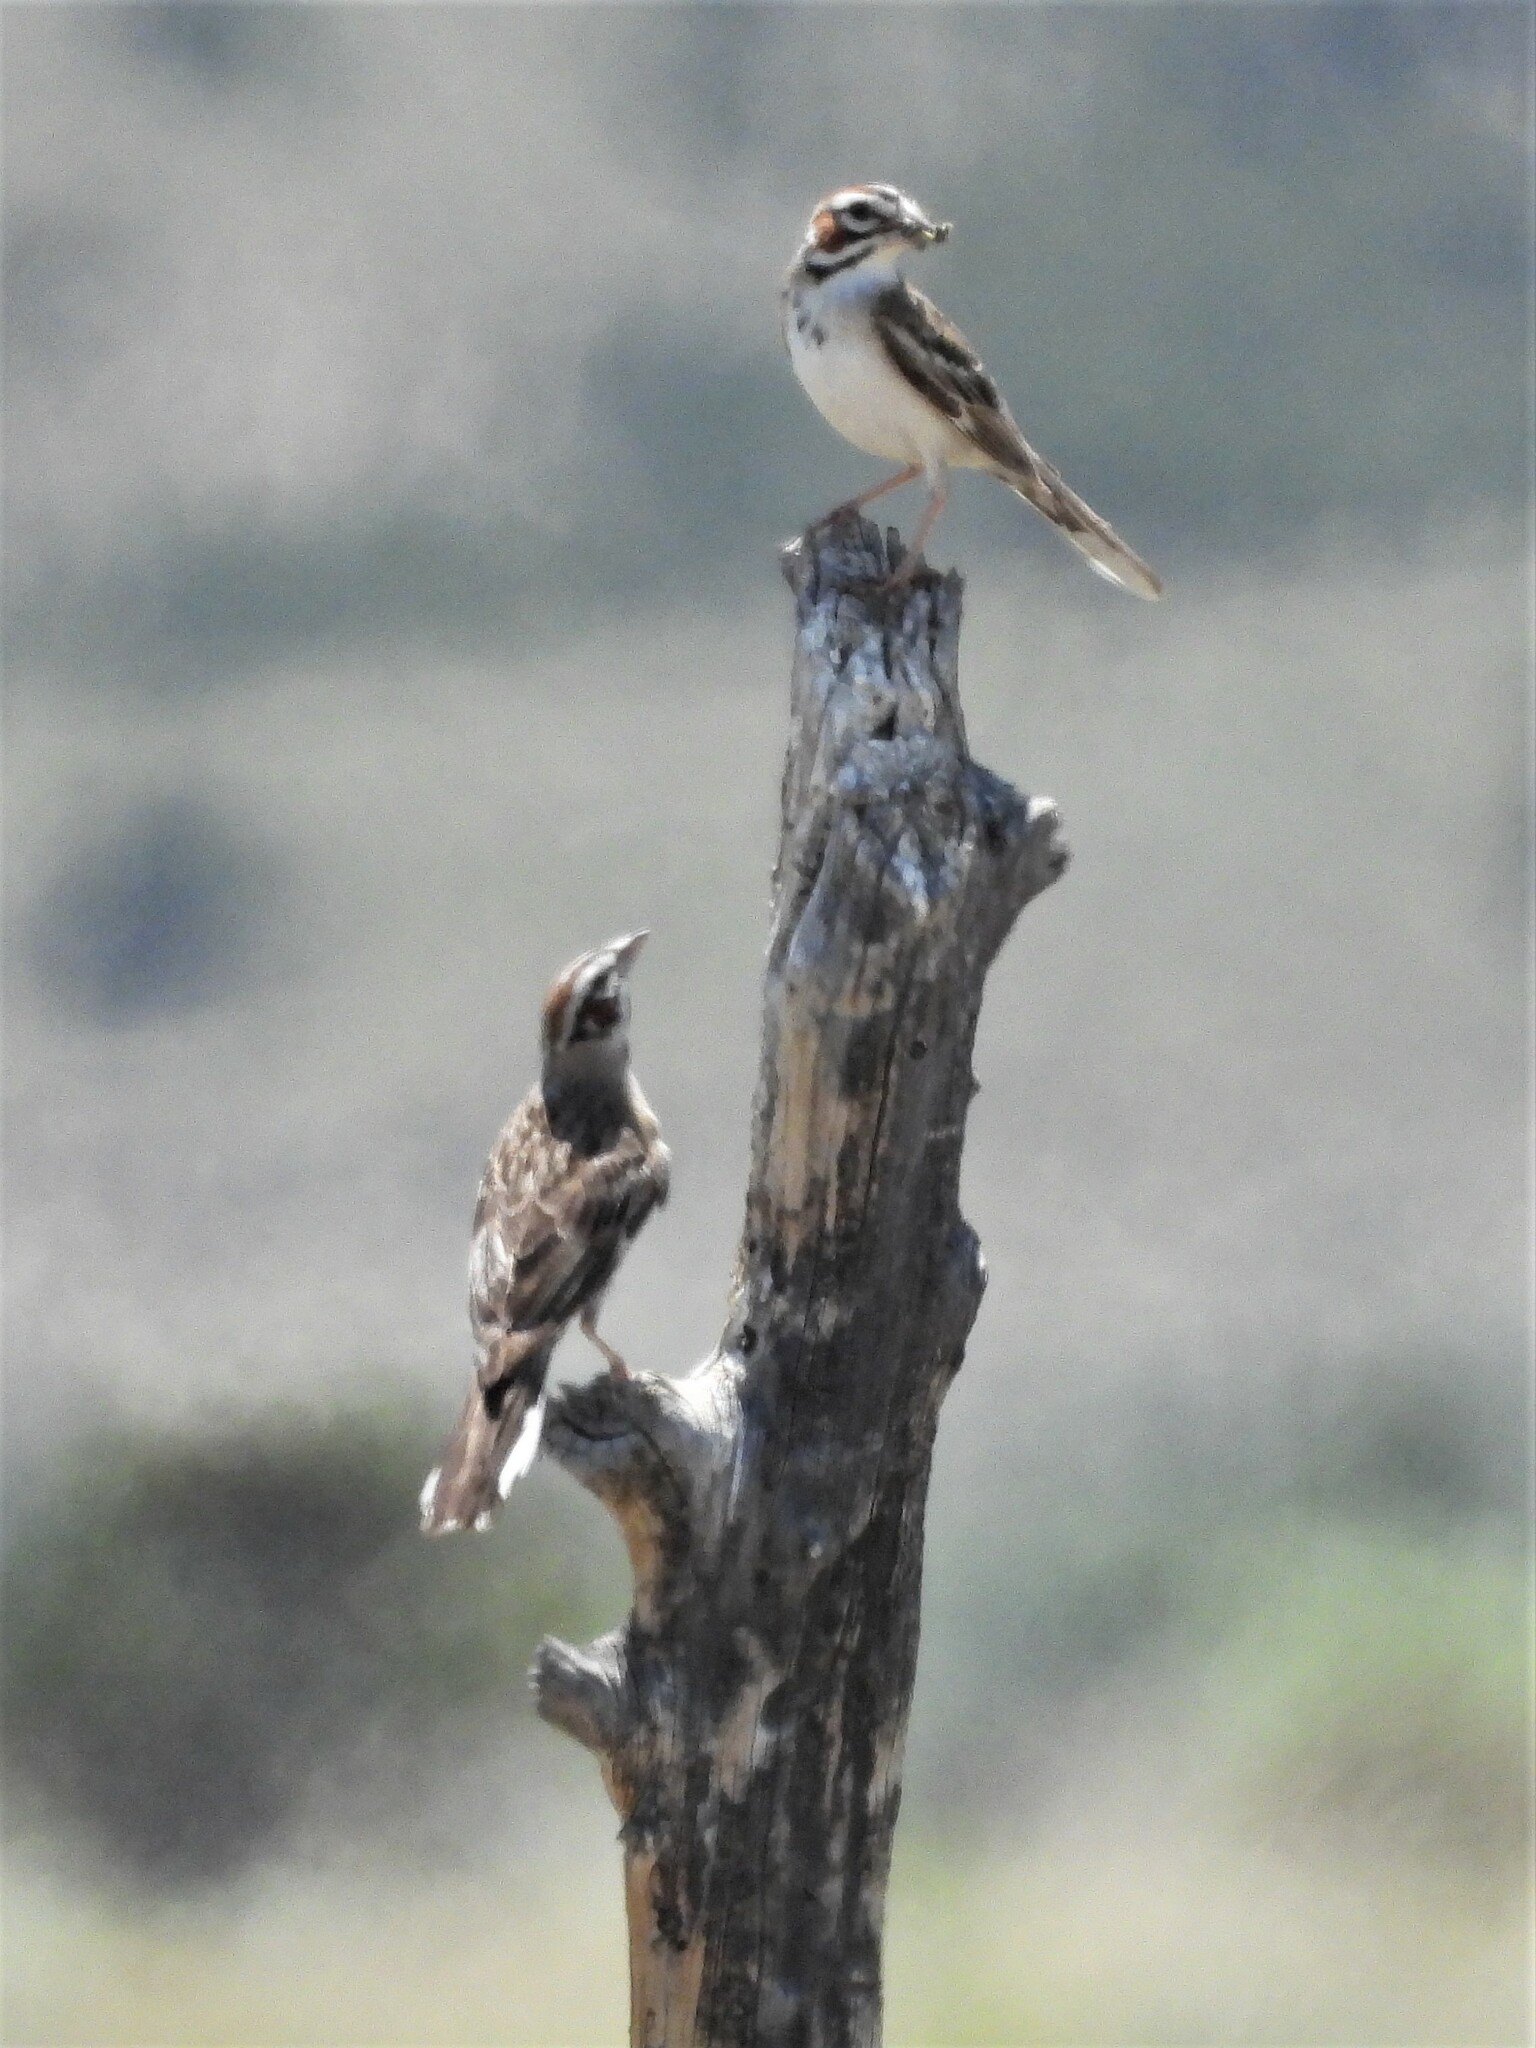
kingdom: Animalia
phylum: Chordata
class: Aves
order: Passeriformes
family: Passerellidae
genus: Chondestes
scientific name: Chondestes grammacus
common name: Lark sparrow
